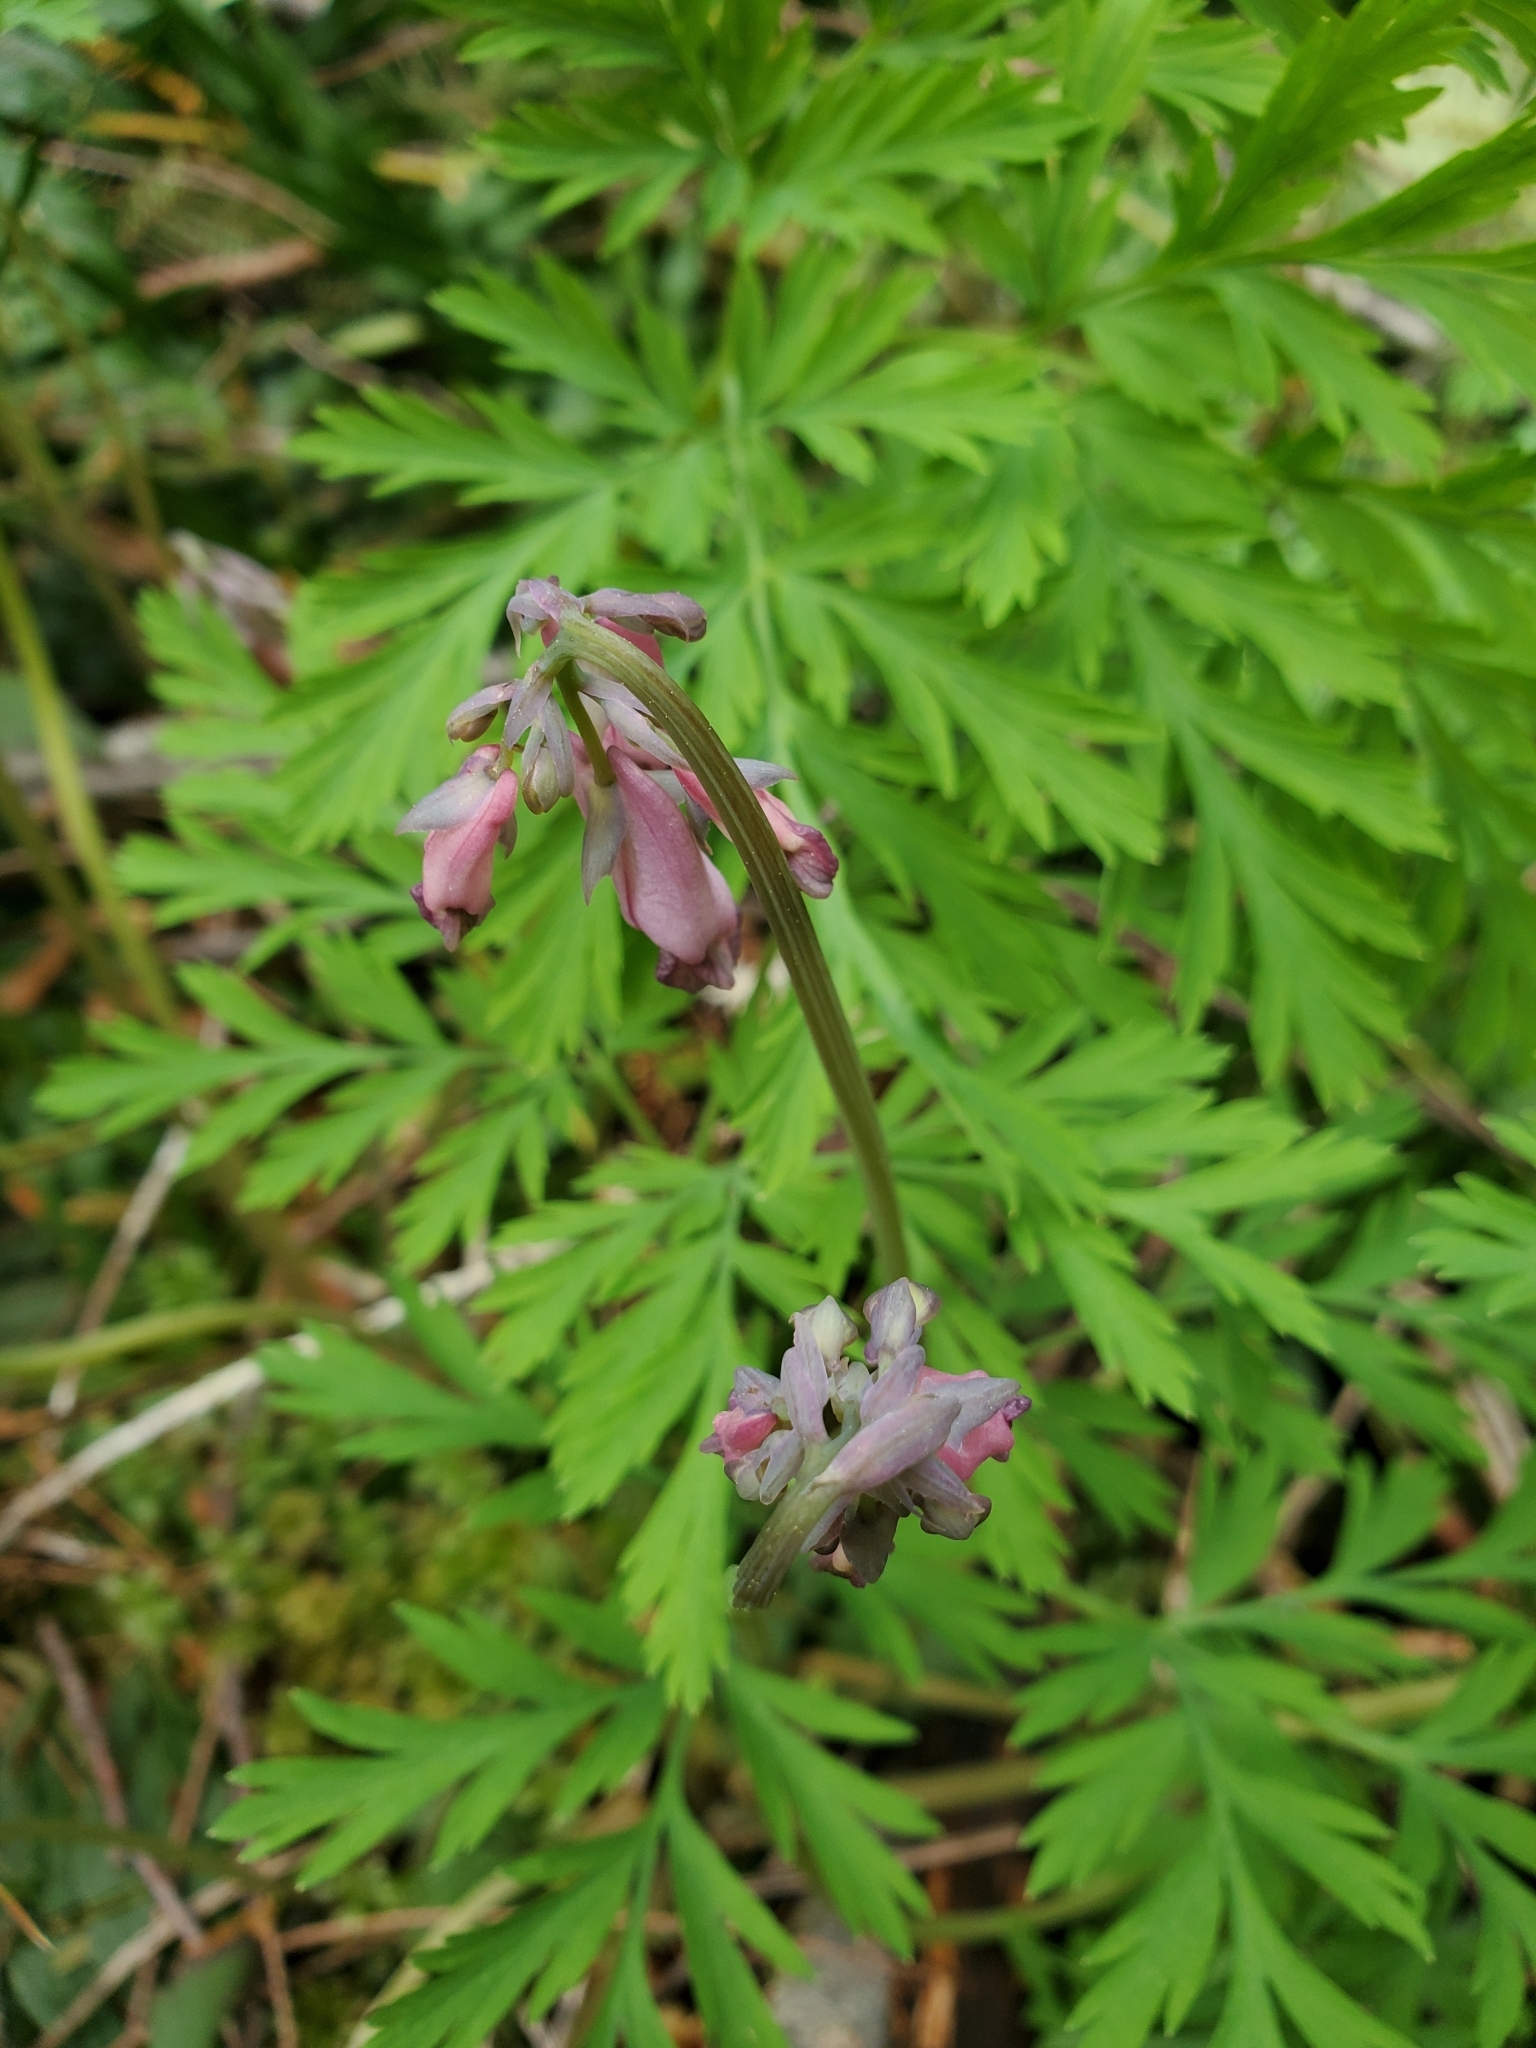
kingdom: Plantae
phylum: Tracheophyta
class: Magnoliopsida
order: Ranunculales
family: Papaveraceae
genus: Dicentra
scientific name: Dicentra formosa
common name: Bleeding-heart
